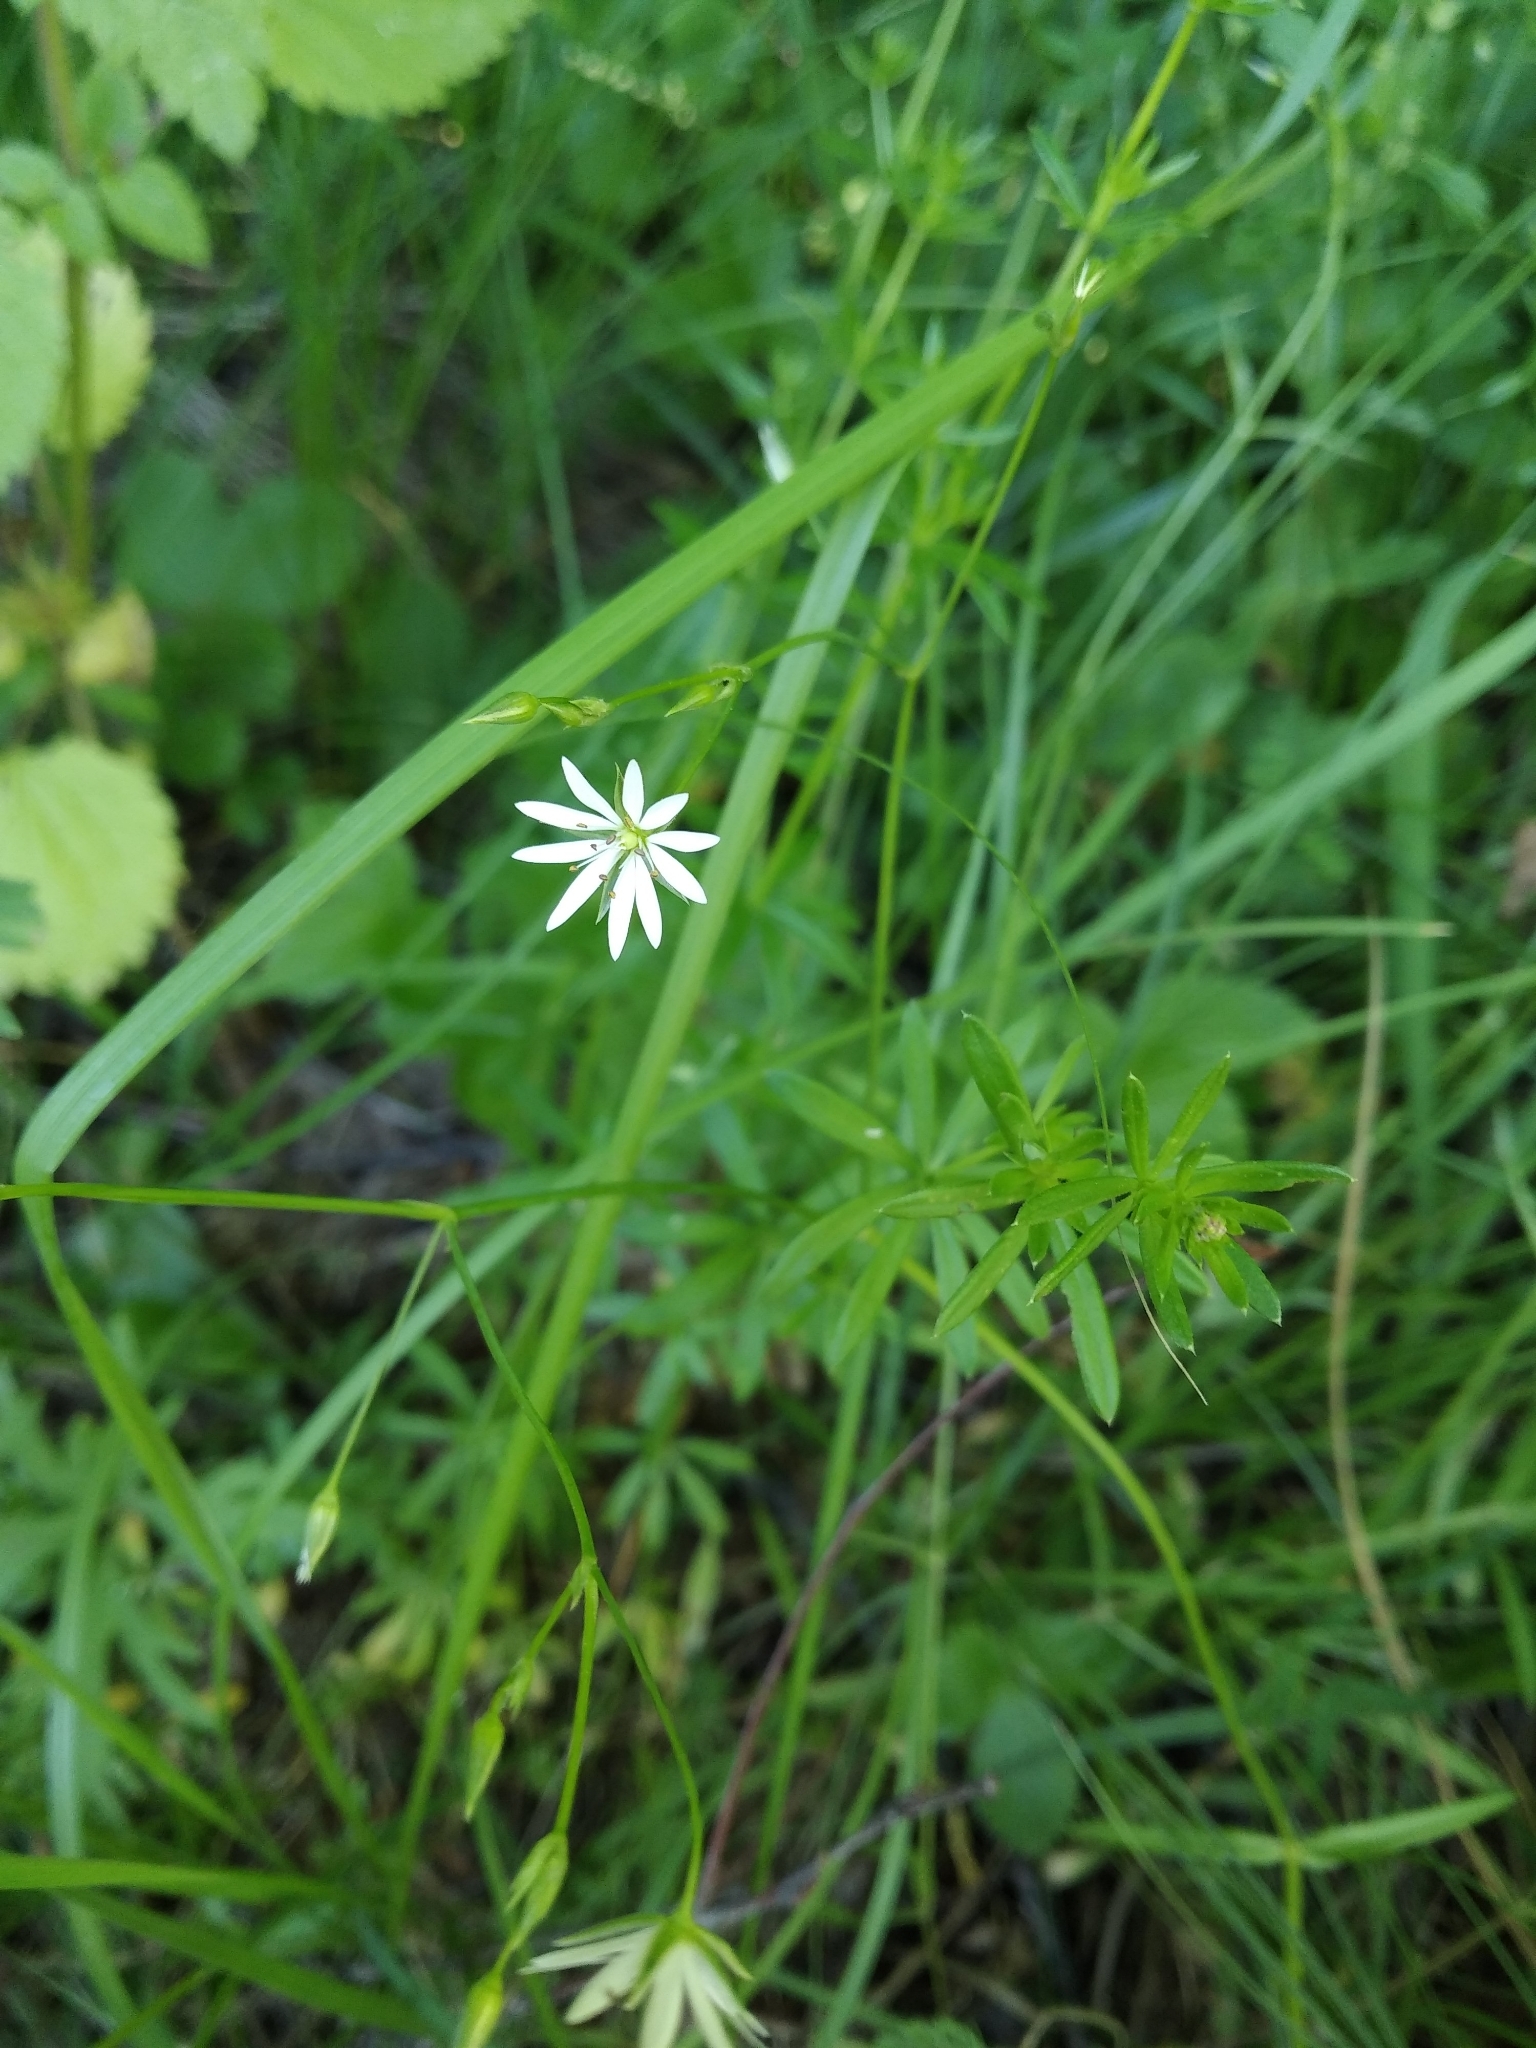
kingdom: Plantae
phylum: Tracheophyta
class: Magnoliopsida
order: Caryophyllales
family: Caryophyllaceae
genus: Stellaria
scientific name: Stellaria graminea
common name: Grass-like starwort
